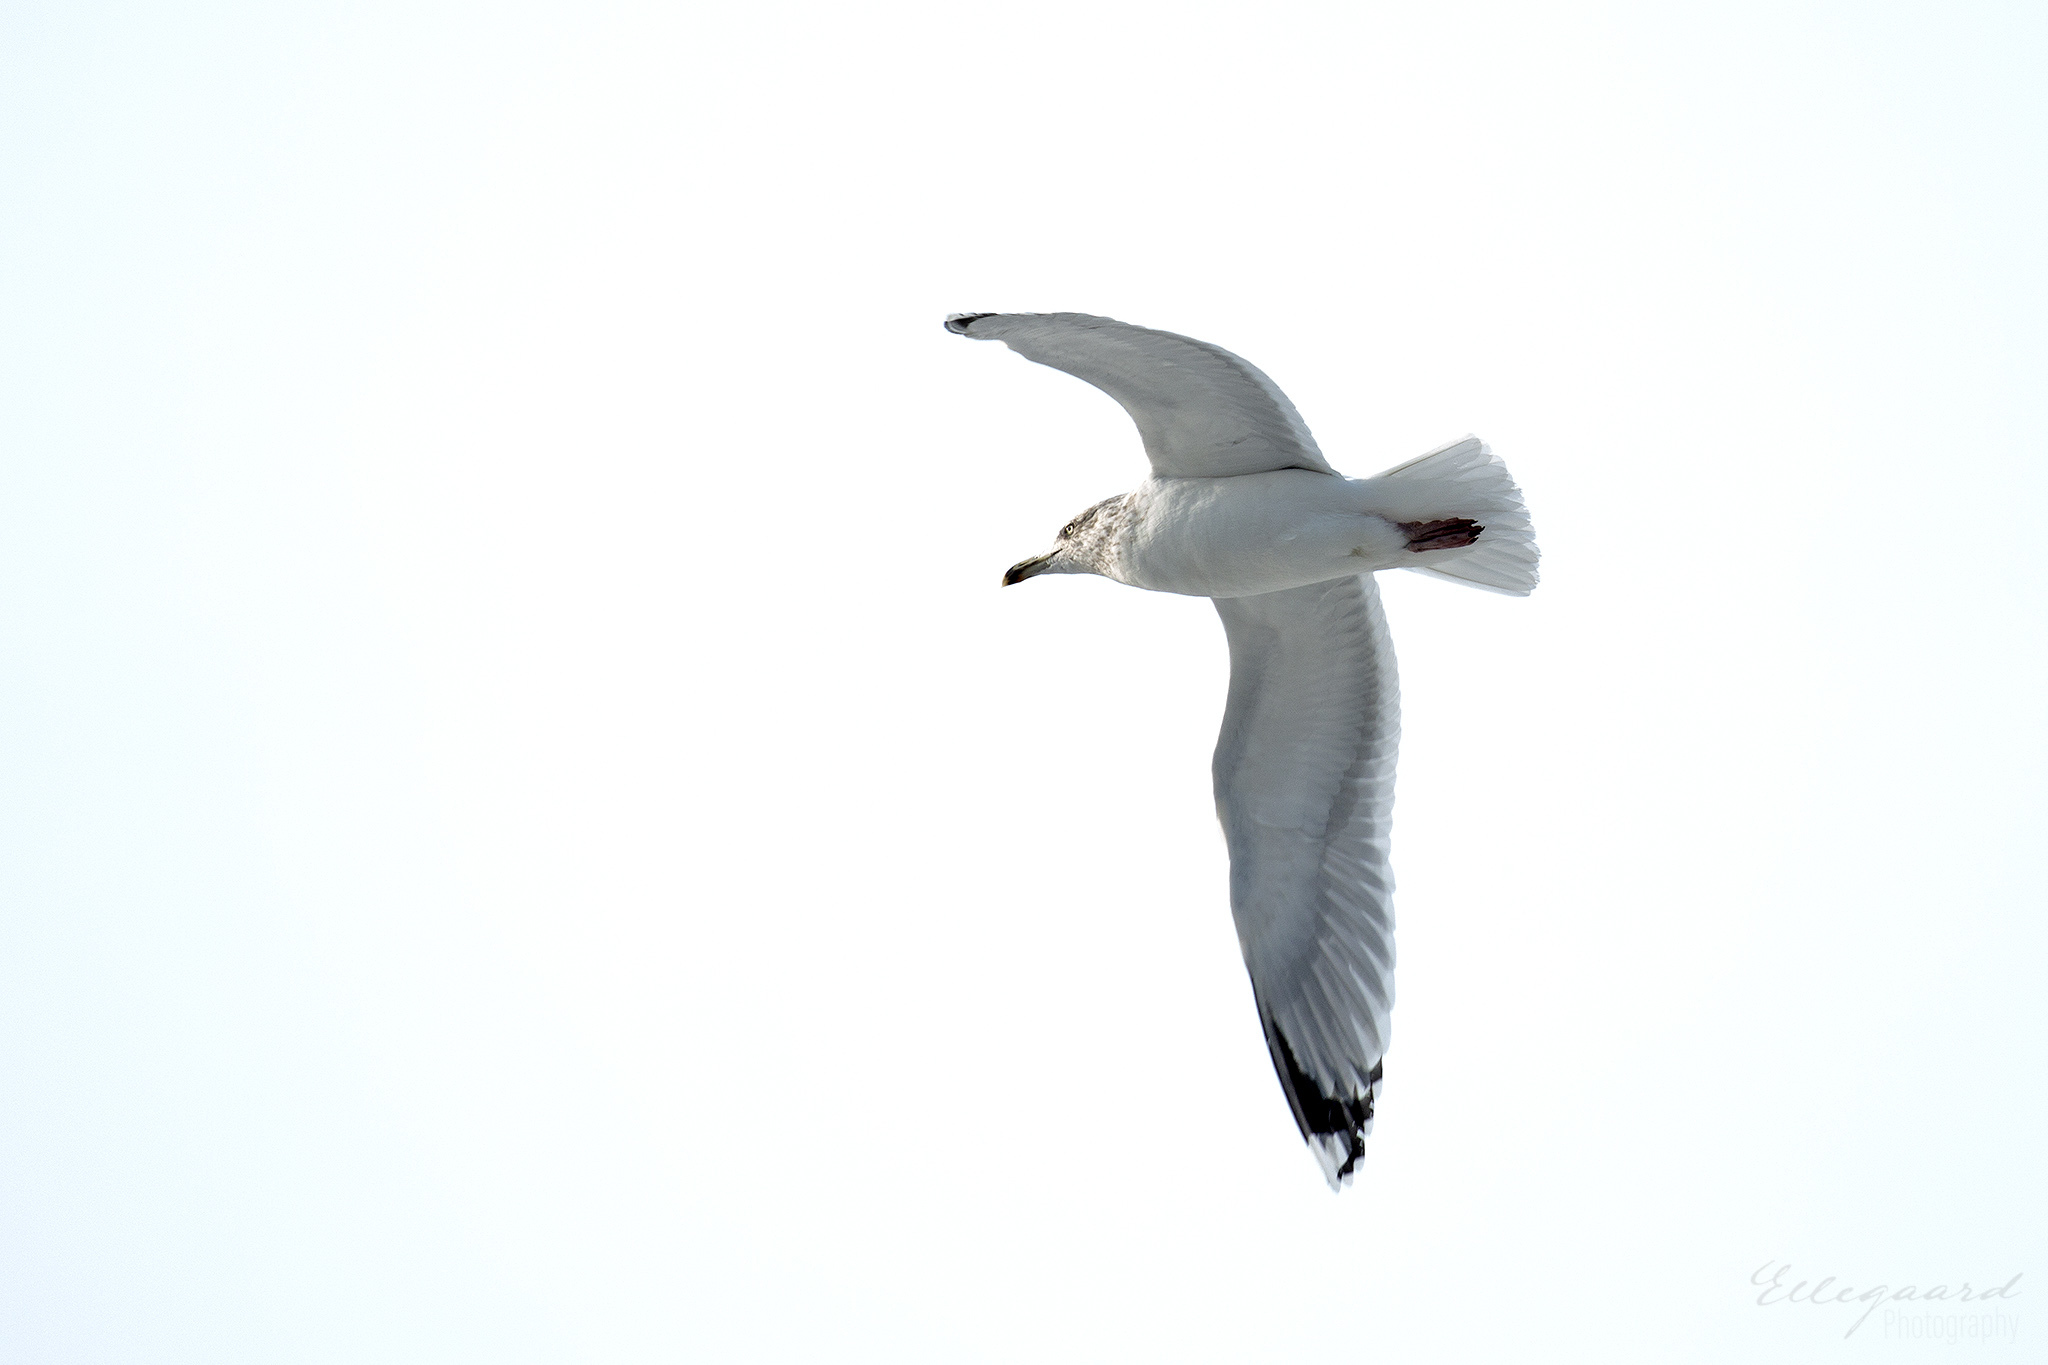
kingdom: Animalia
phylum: Chordata
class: Aves
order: Charadriiformes
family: Laridae
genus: Larus
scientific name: Larus argentatus
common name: Herring gull
